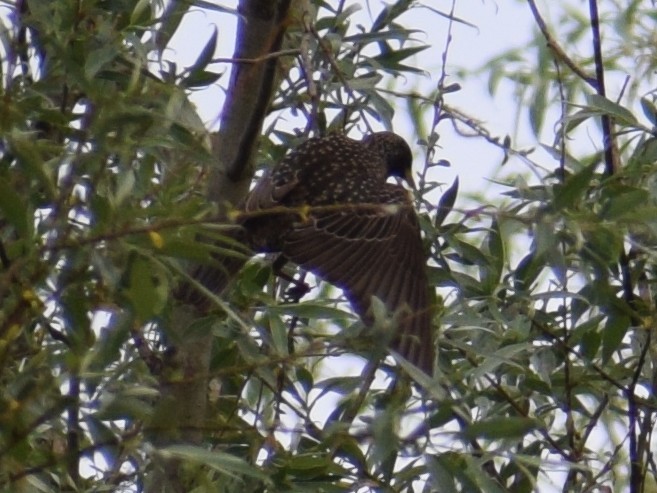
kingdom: Animalia
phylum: Chordata
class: Aves
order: Passeriformes
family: Sturnidae
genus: Sturnus
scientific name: Sturnus vulgaris
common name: Common starling
